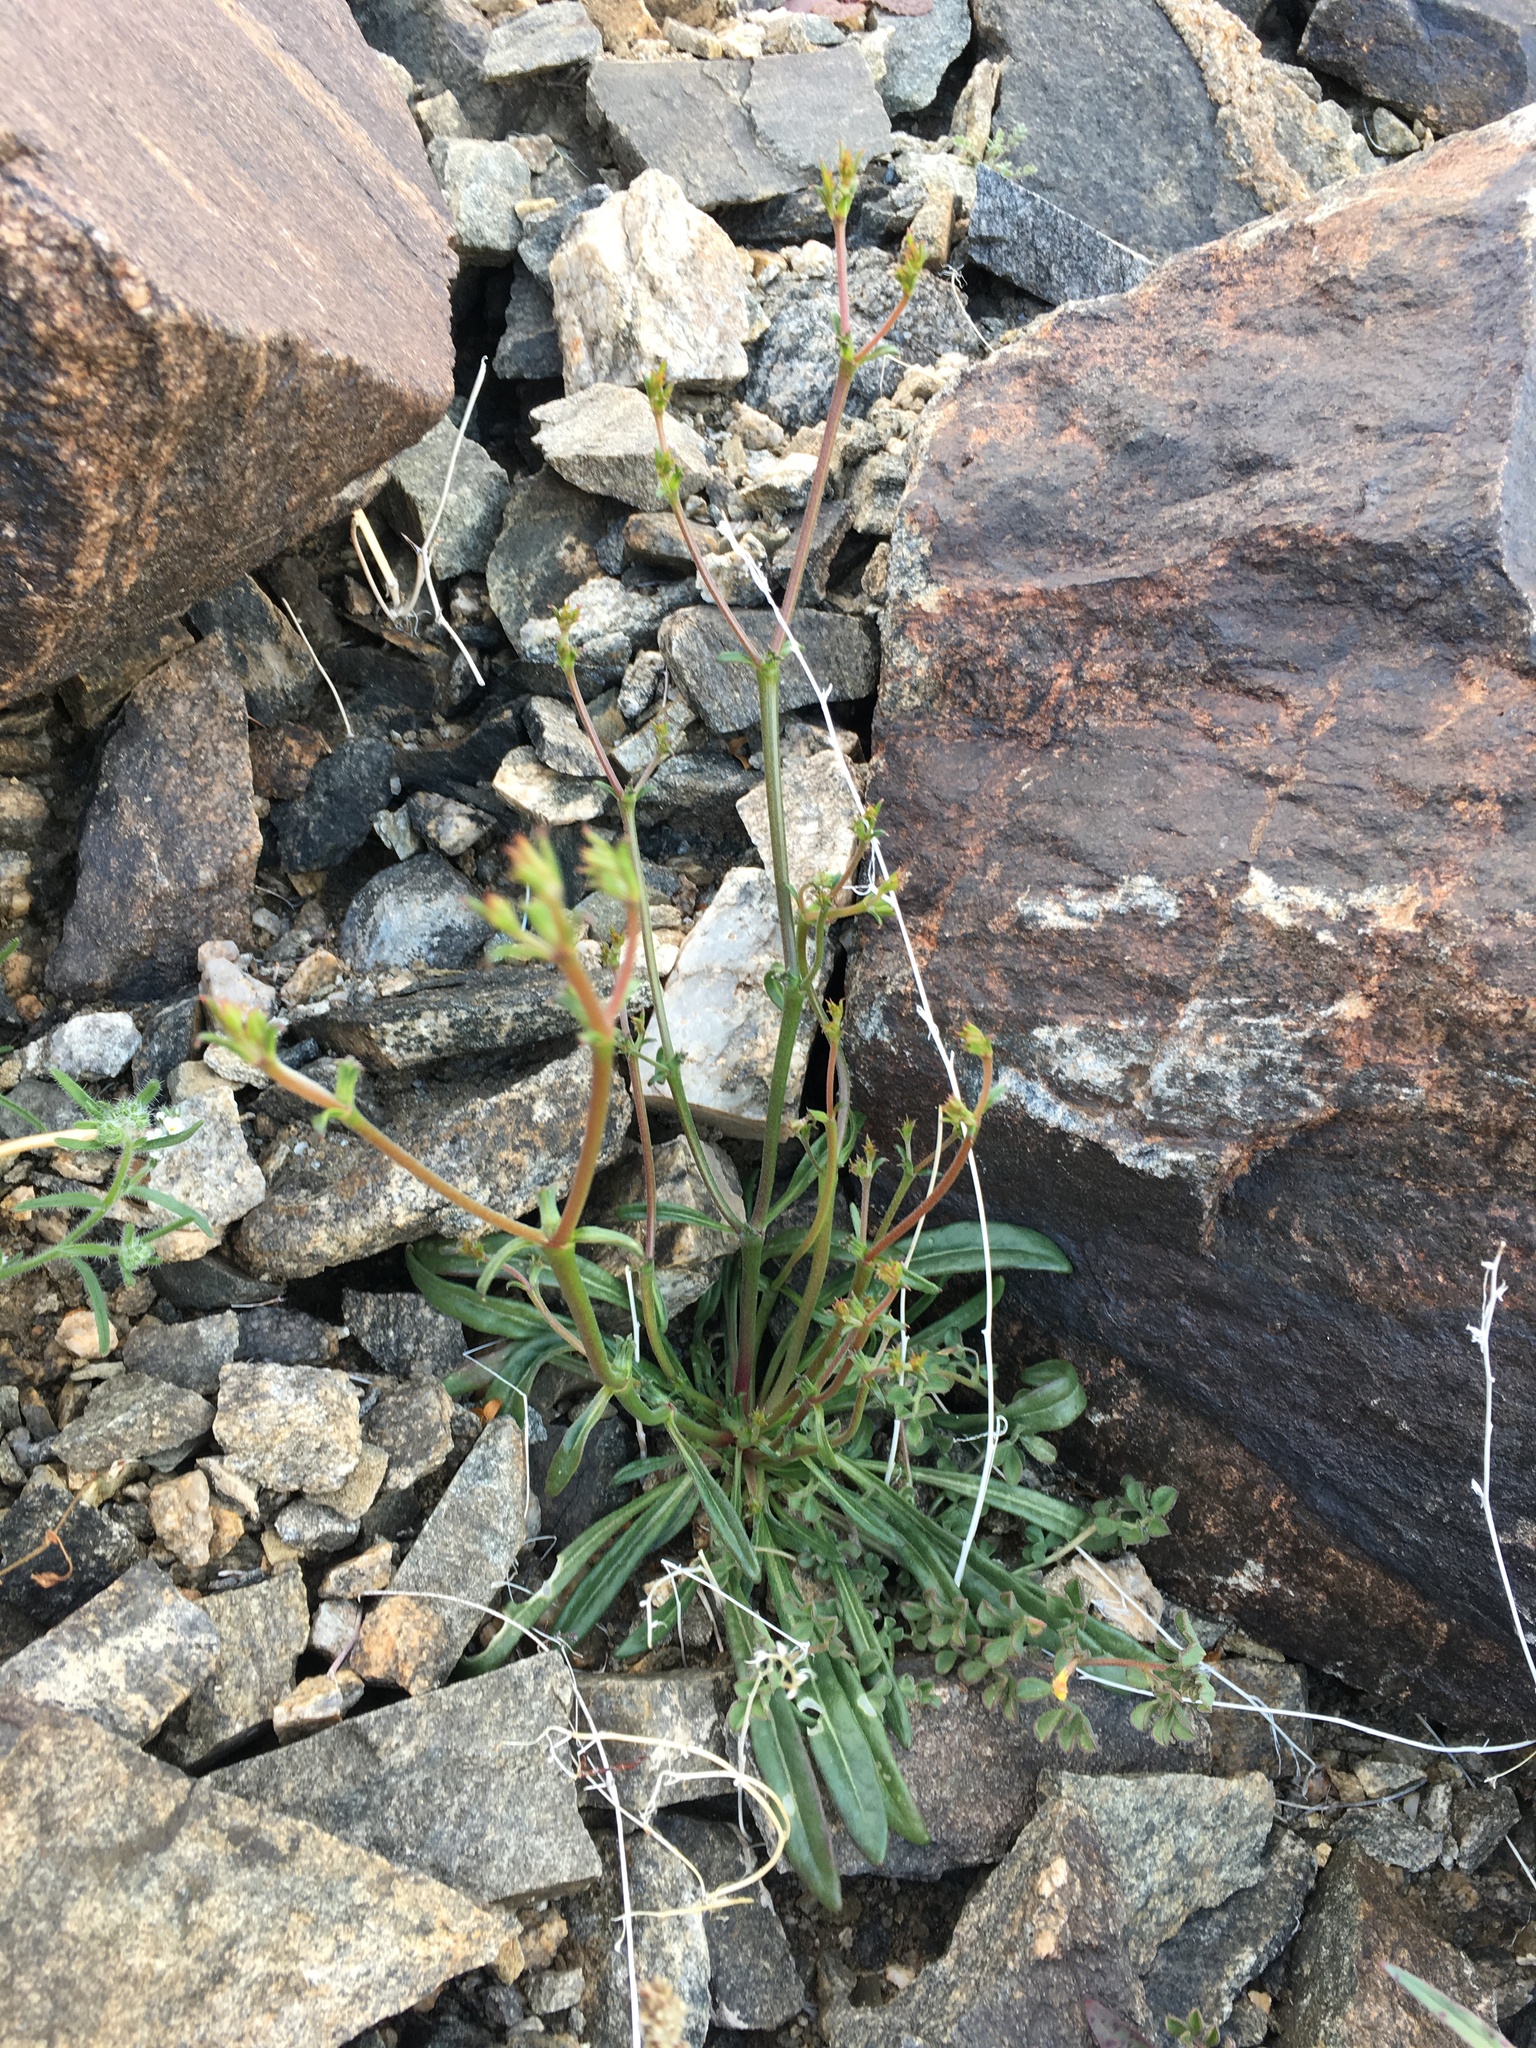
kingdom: Plantae
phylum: Tracheophyta
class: Magnoliopsida
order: Caryophyllales
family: Polygonaceae
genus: Chorizanthe
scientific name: Chorizanthe brevicornu
